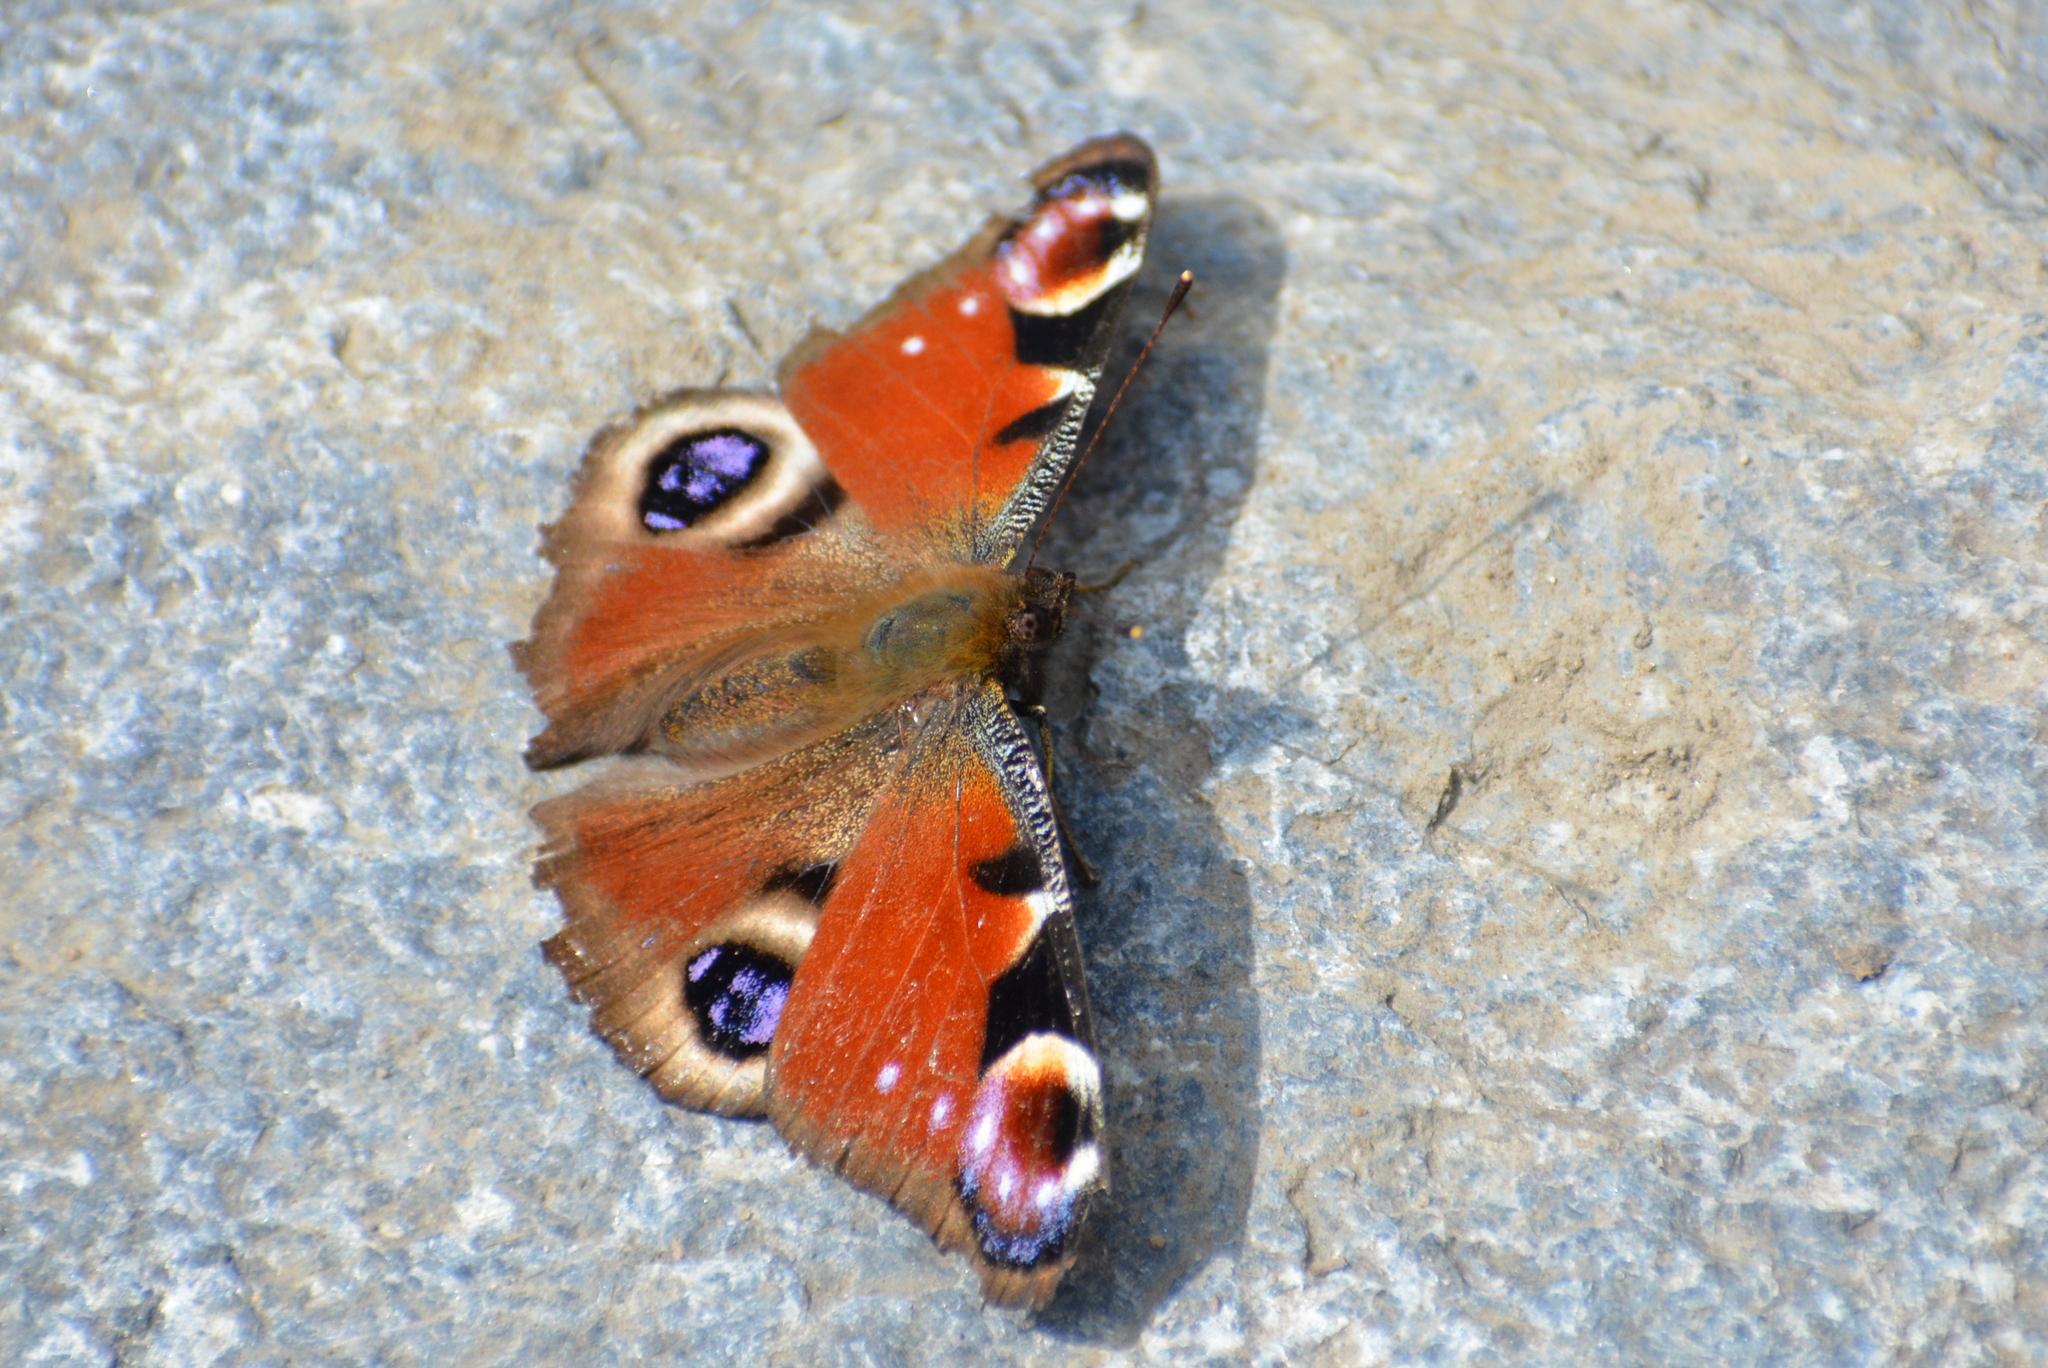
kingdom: Animalia
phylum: Arthropoda
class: Insecta
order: Lepidoptera
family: Nymphalidae
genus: Aglais
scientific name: Aglais io
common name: Peacock
